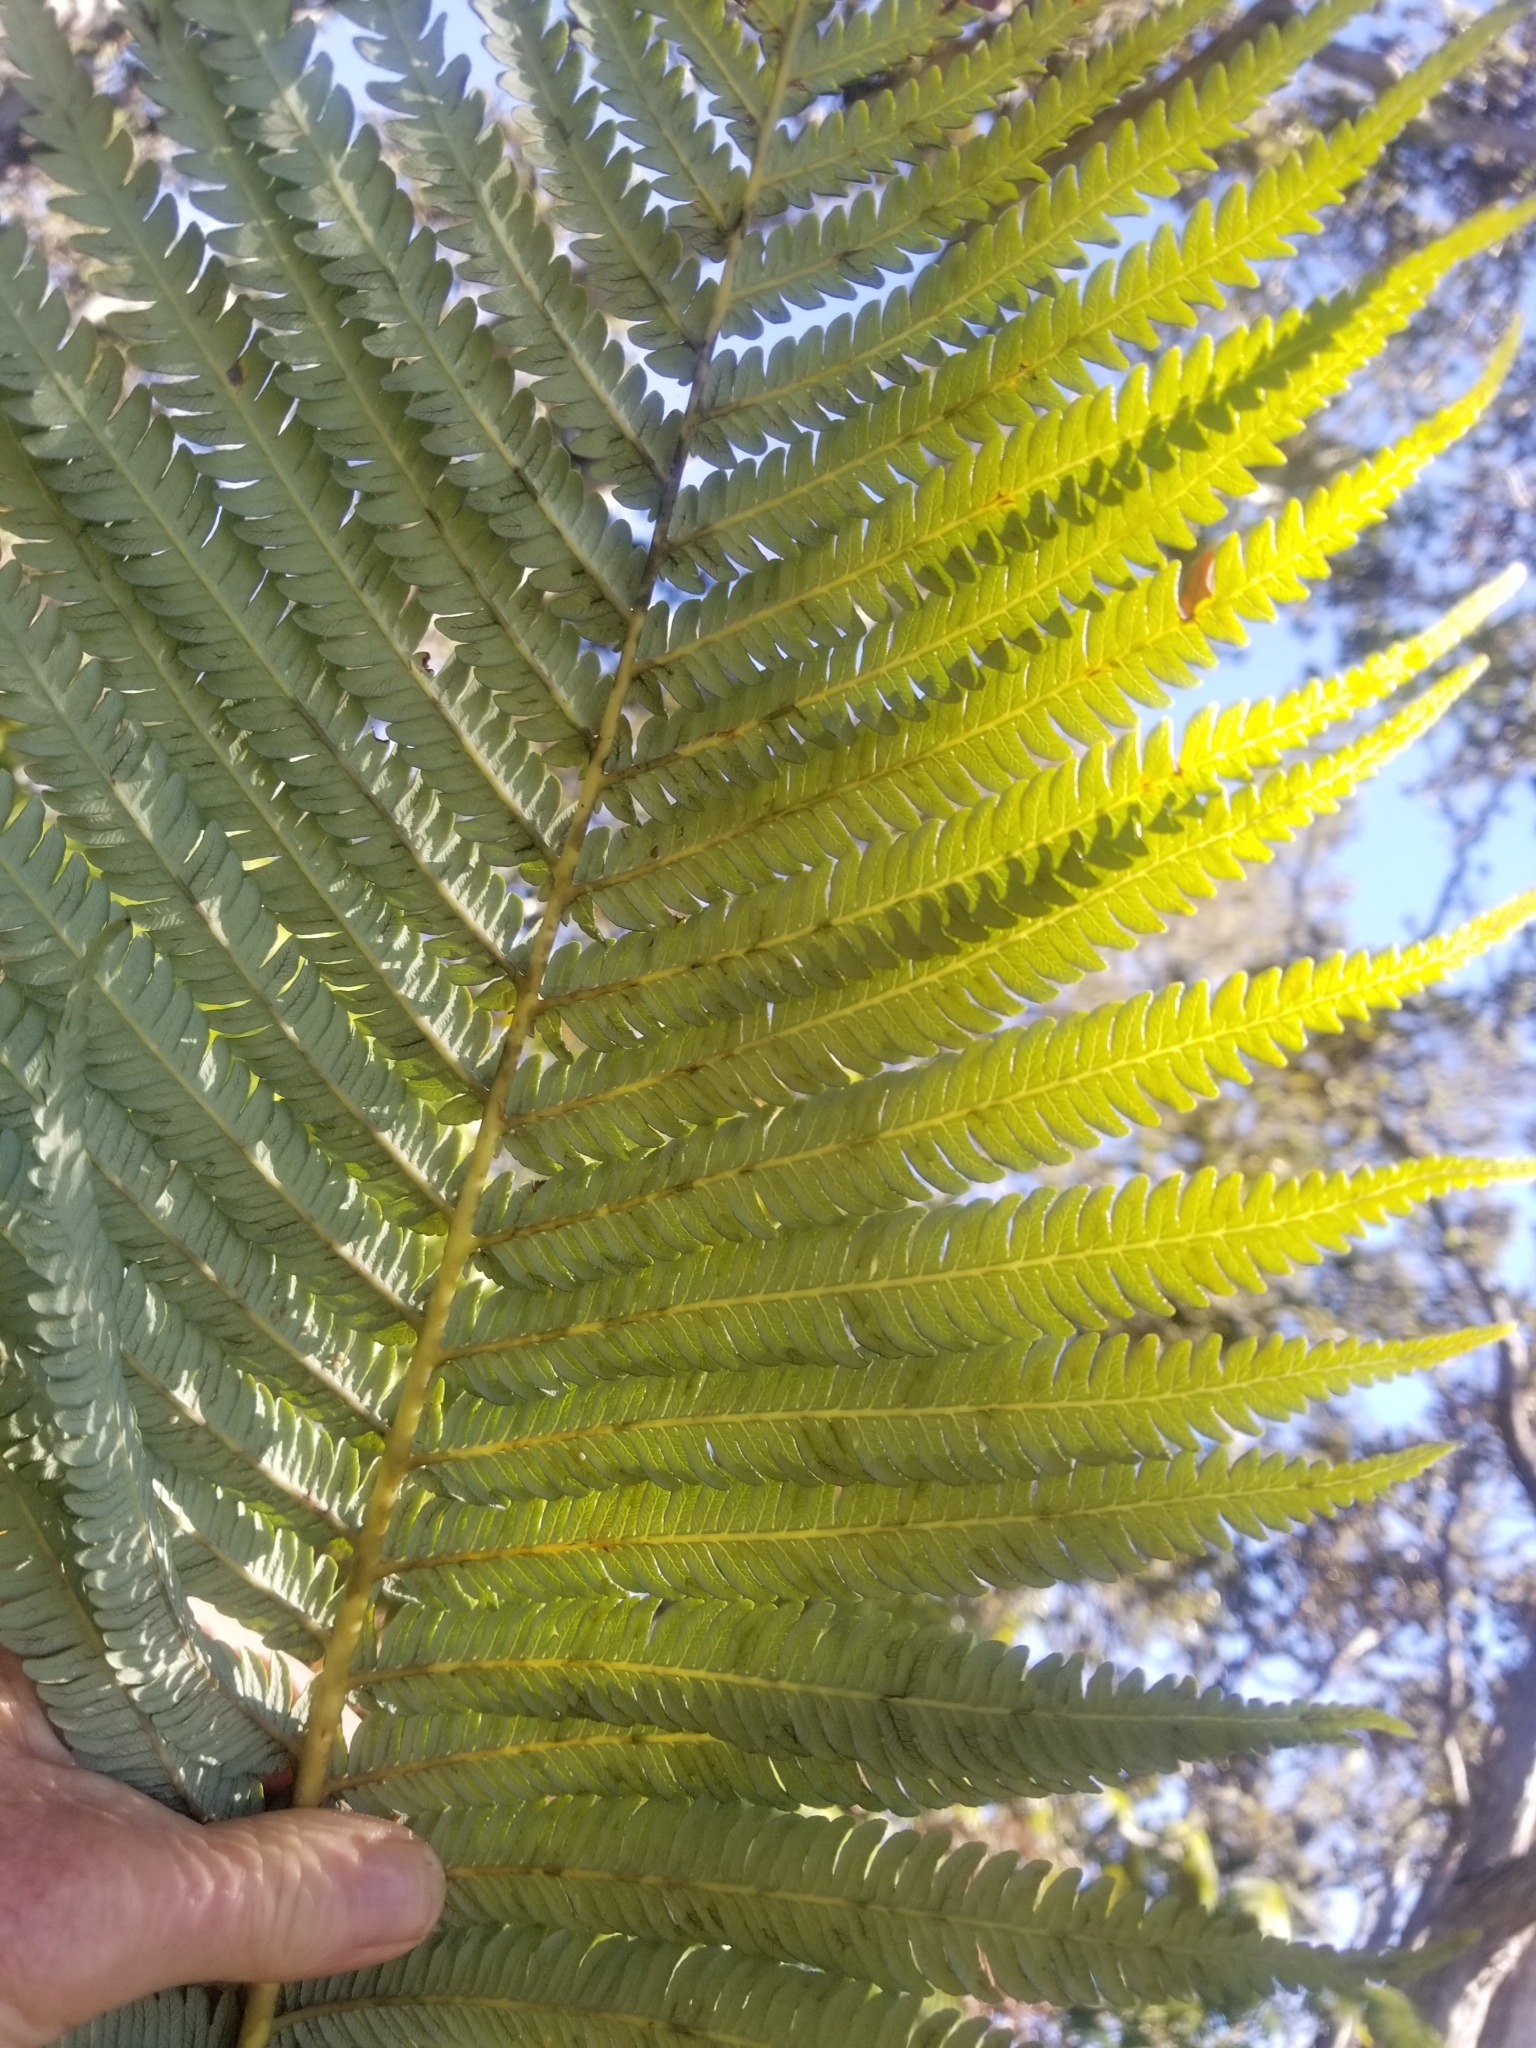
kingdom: Plantae
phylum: Tracheophyta
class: Polypodiopsida
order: Cyatheales
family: Cibotiaceae
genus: Cibotium
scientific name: Cibotium glaucum
